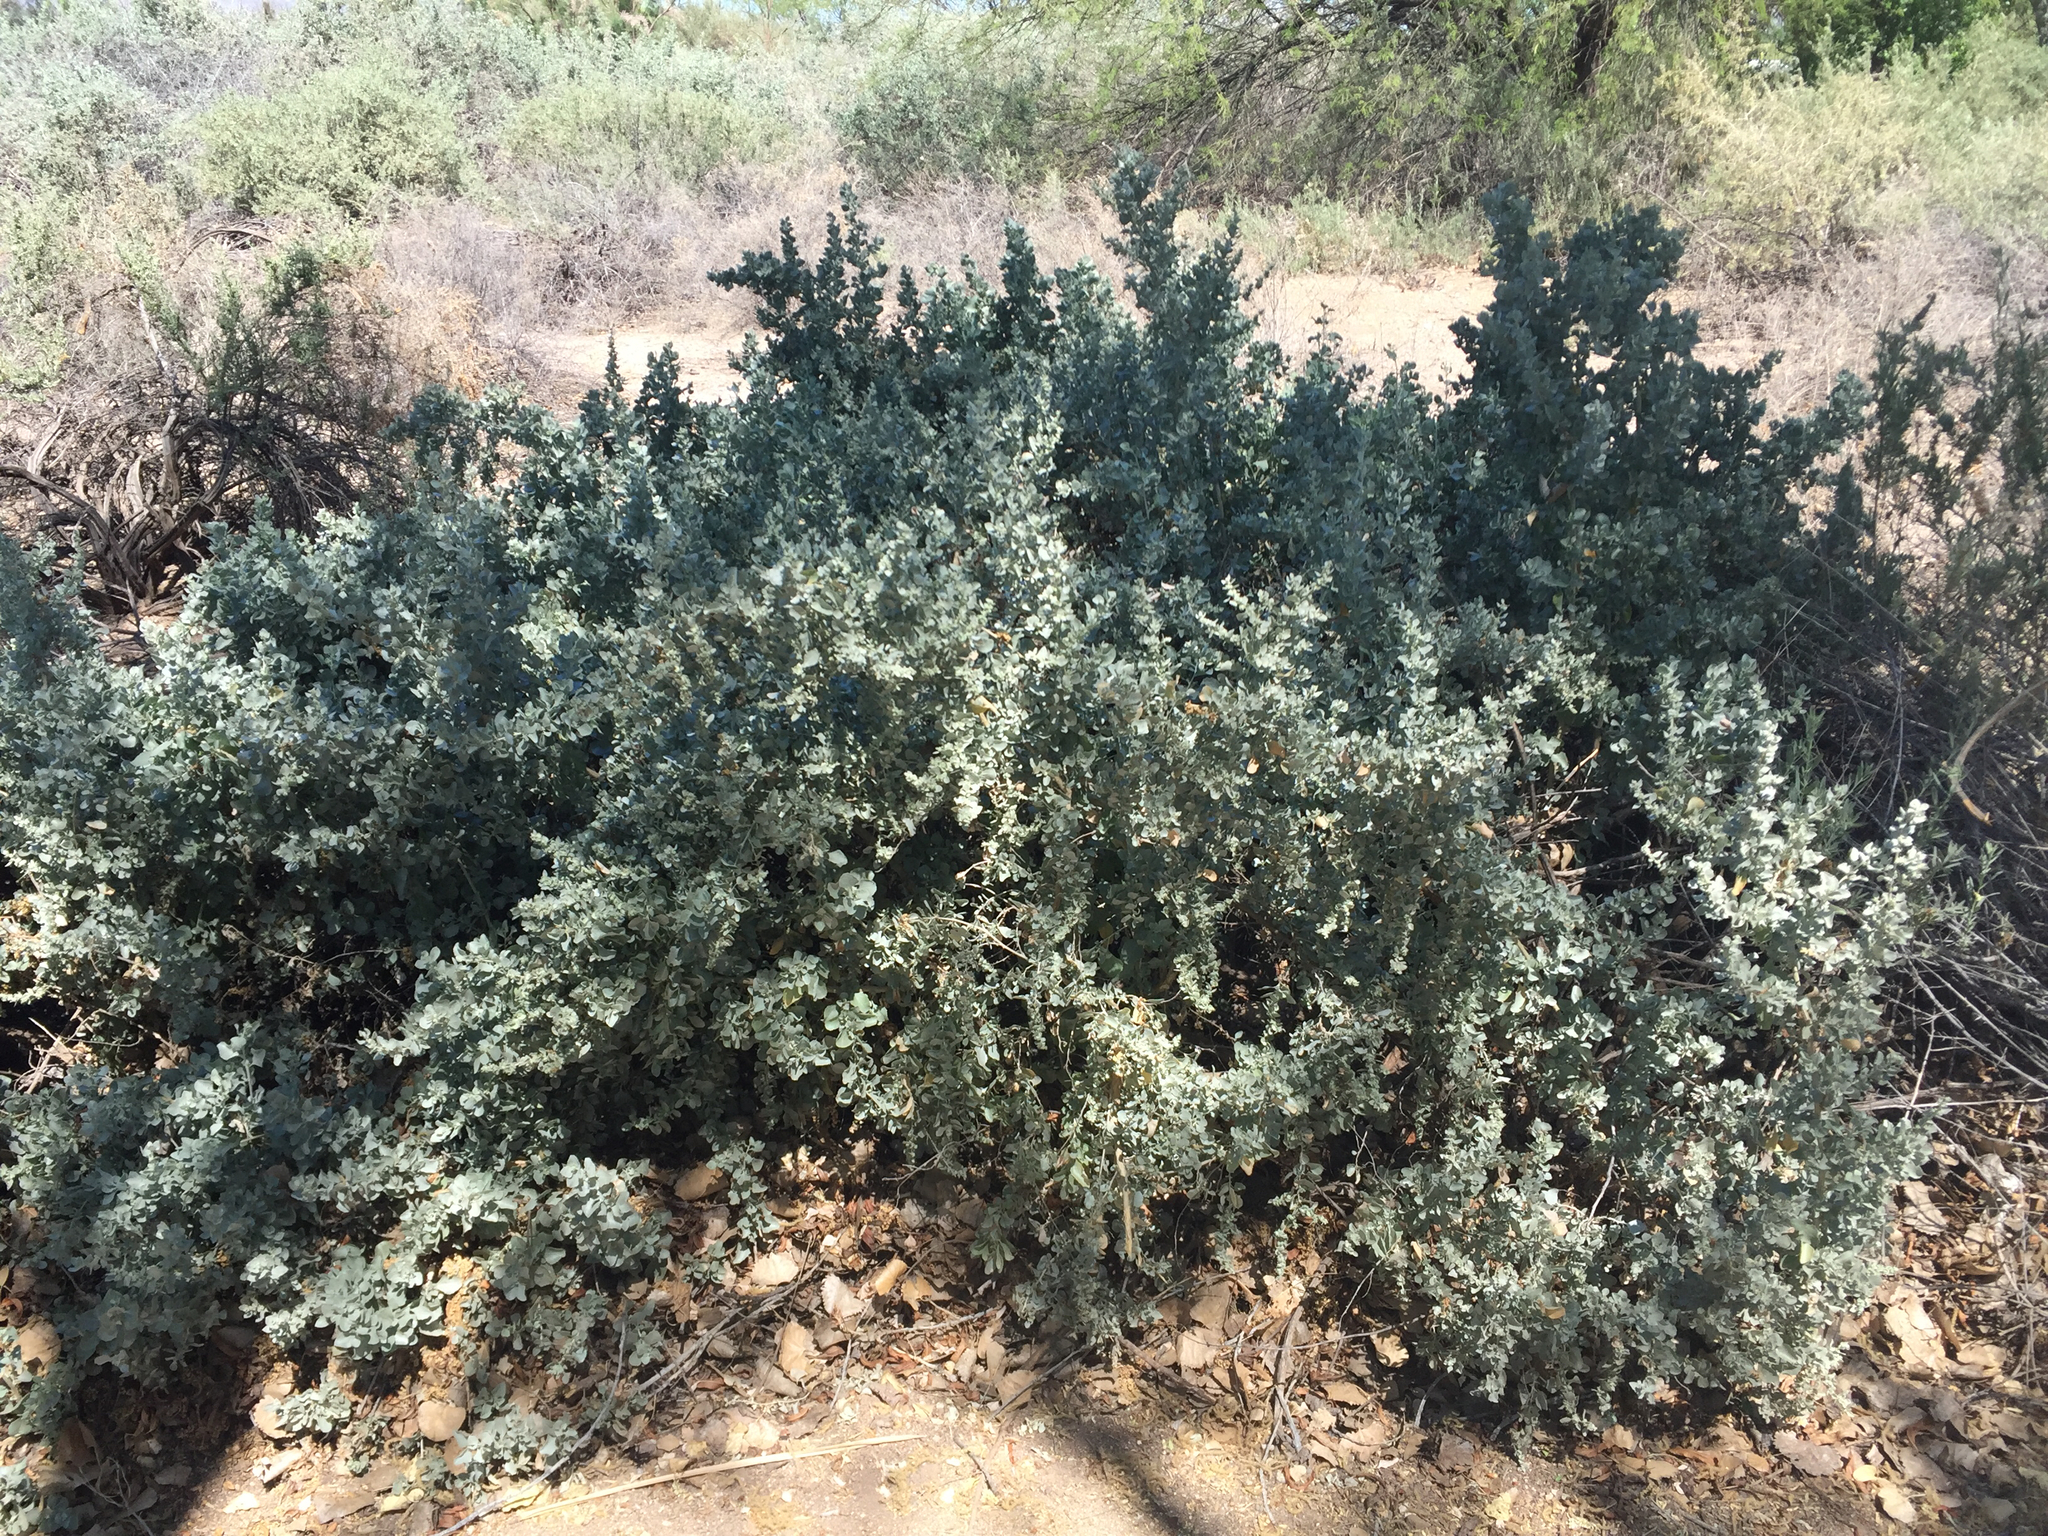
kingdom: Plantae
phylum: Tracheophyta
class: Magnoliopsida
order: Caryophyllales
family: Amaranthaceae
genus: Atriplex
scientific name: Atriplex canescens
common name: Four-wing saltbush
